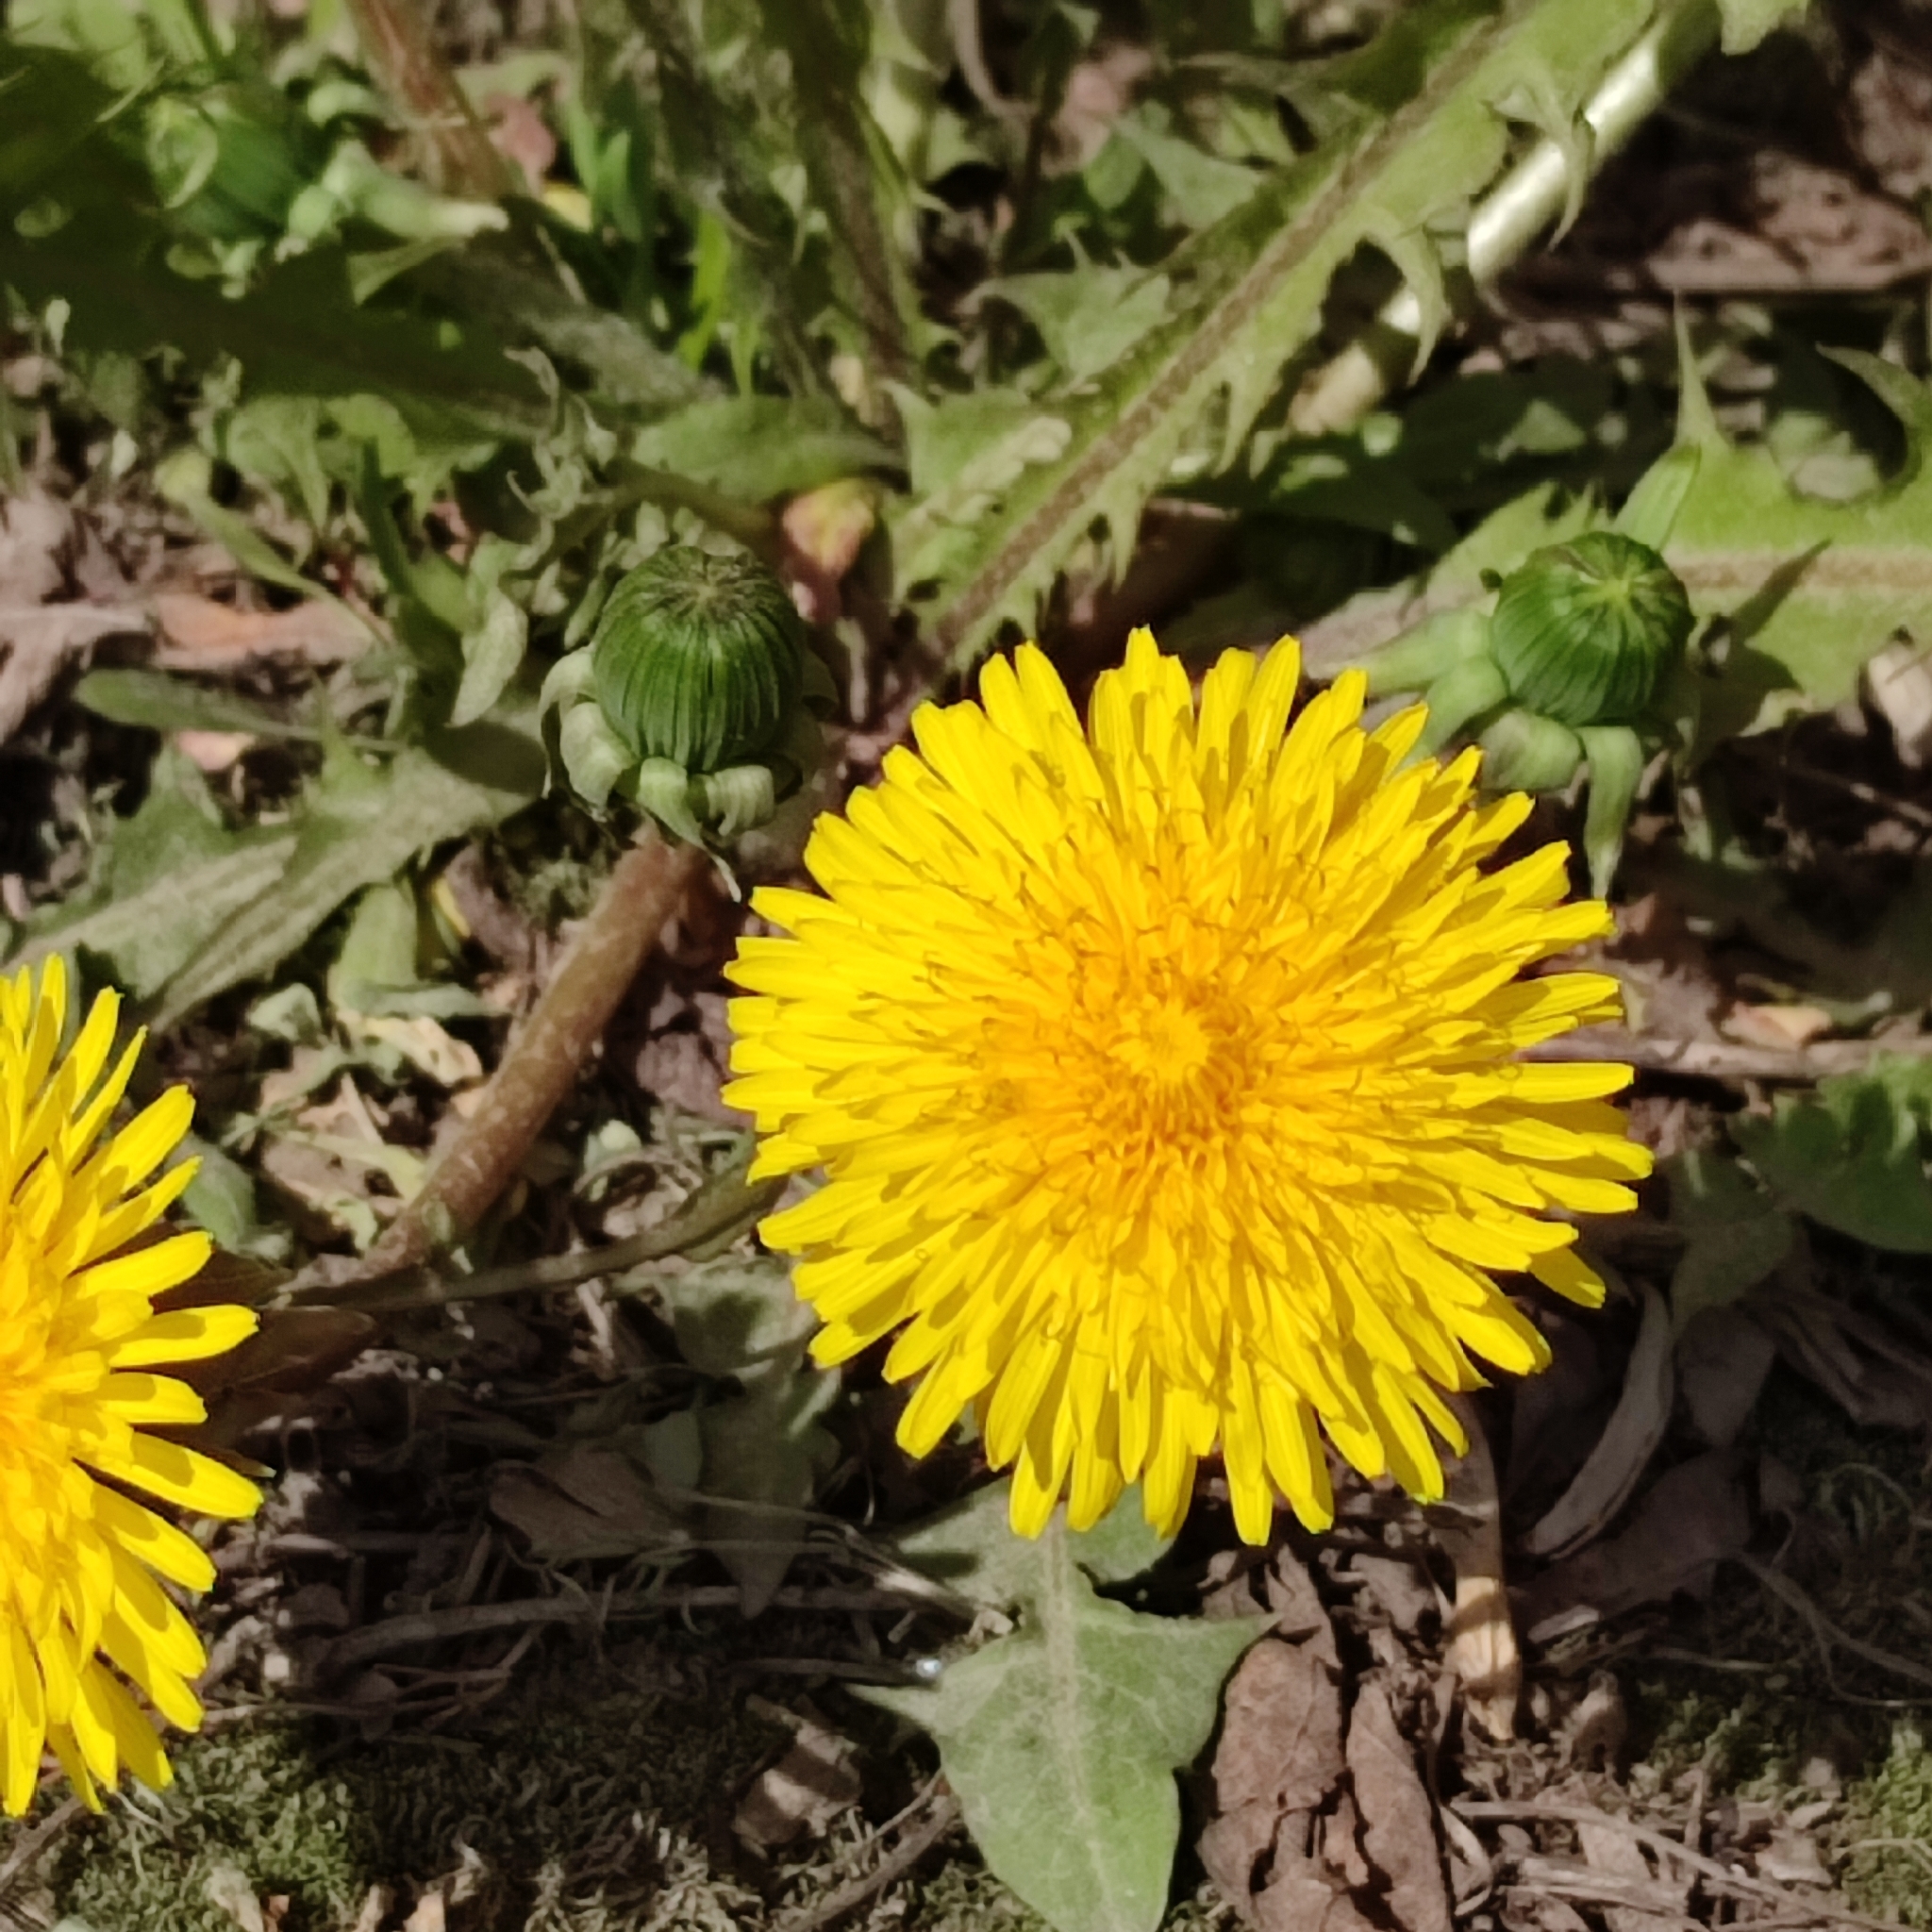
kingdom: Plantae
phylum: Tracheophyta
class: Magnoliopsida
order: Asterales
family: Asteraceae
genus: Taraxacum
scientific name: Taraxacum officinale
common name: Common dandelion
